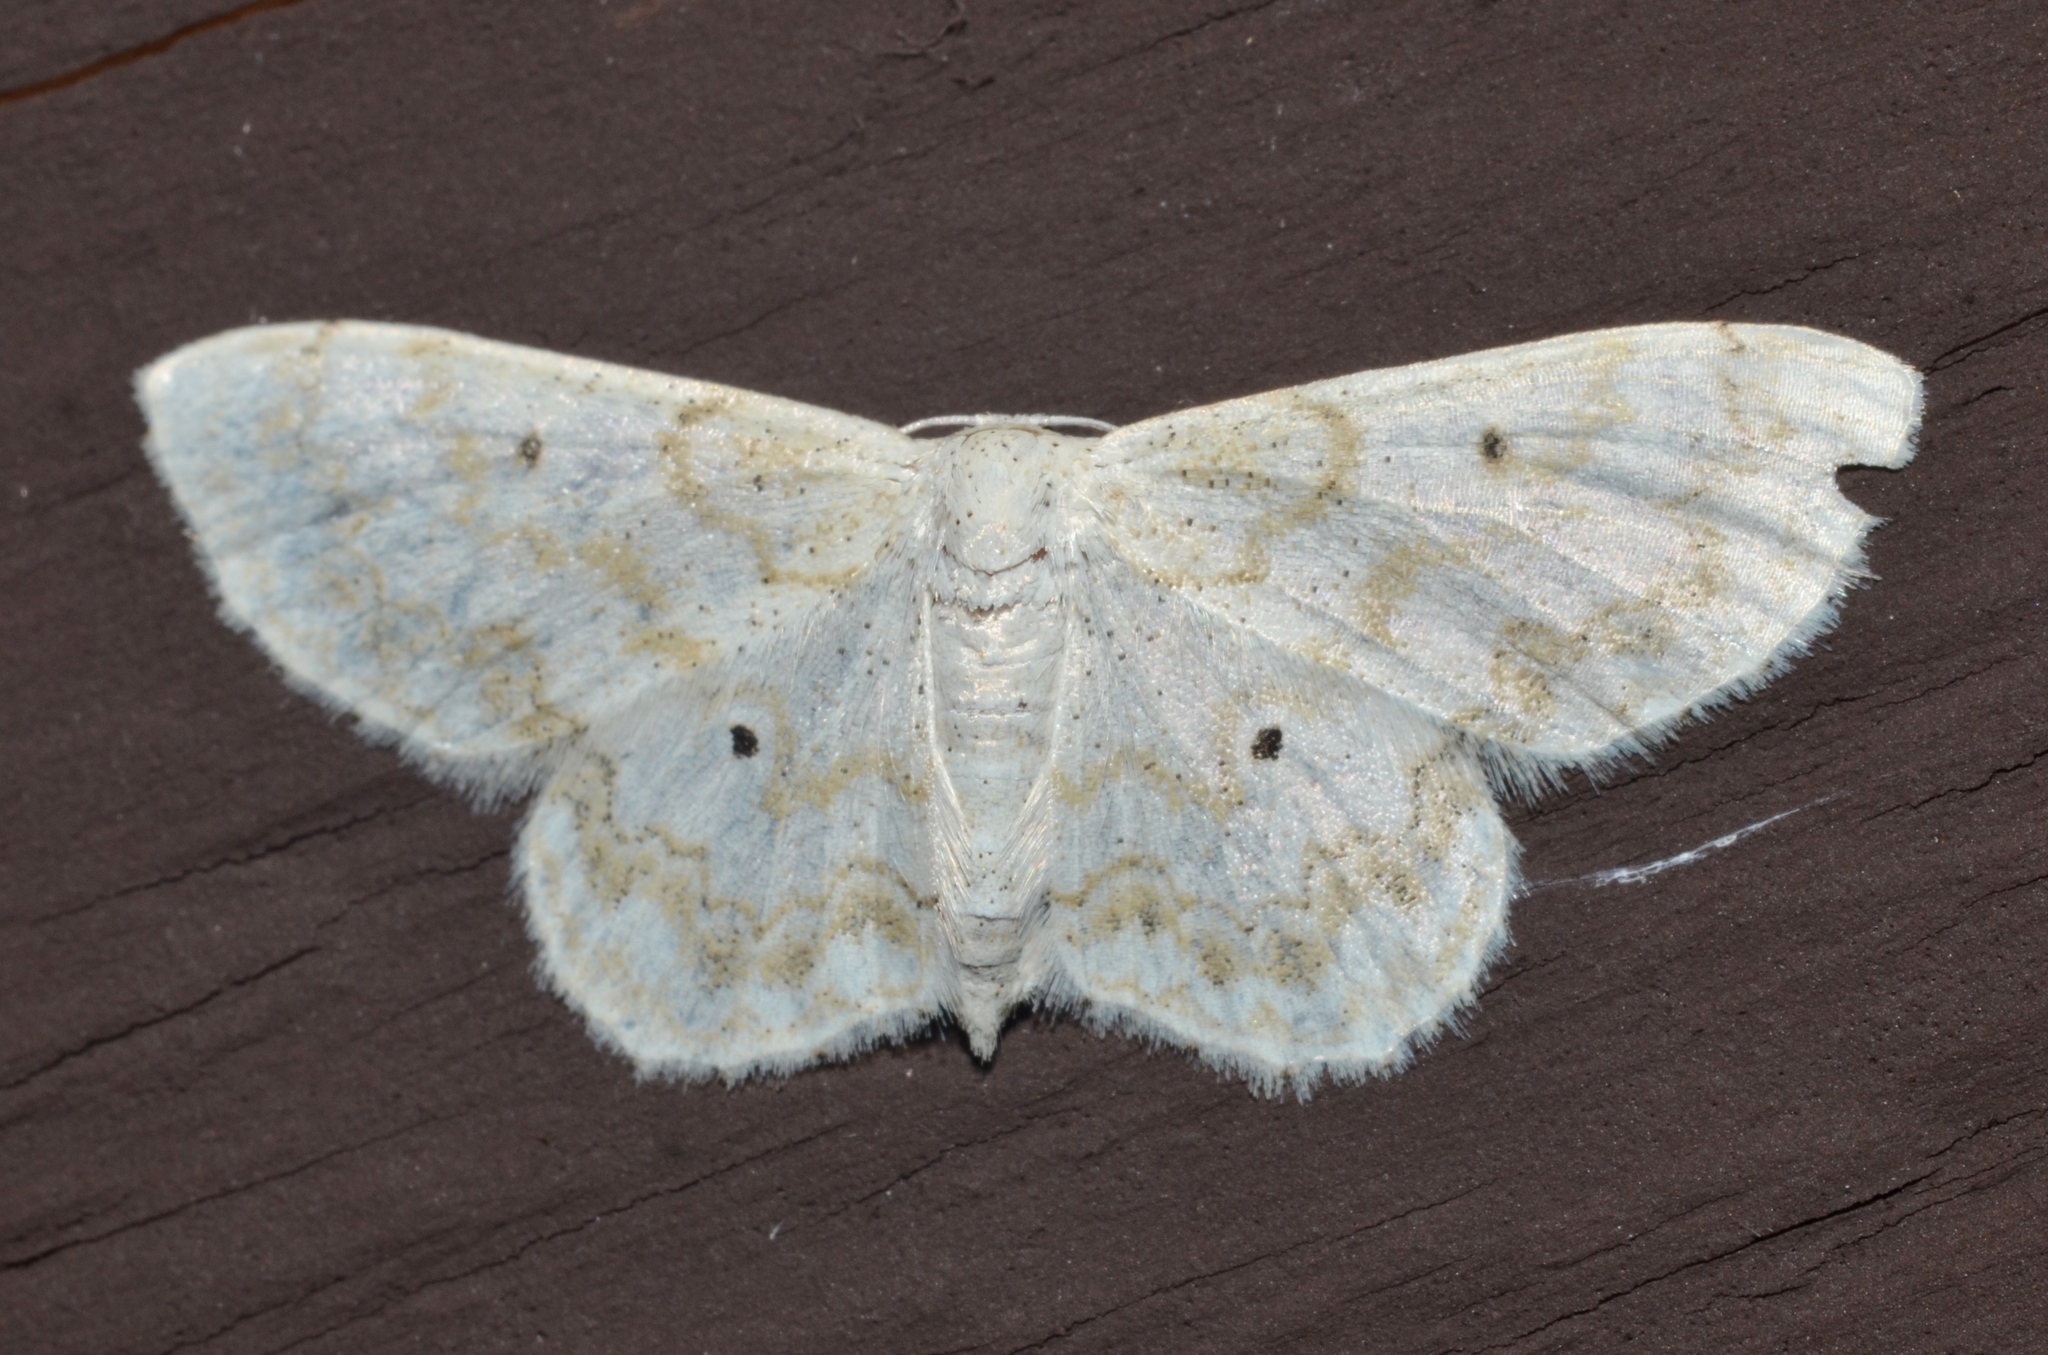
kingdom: Animalia
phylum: Arthropoda
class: Insecta
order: Lepidoptera
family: Geometridae
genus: Idaea
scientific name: Idaea obfusaria
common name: Rippled wave
